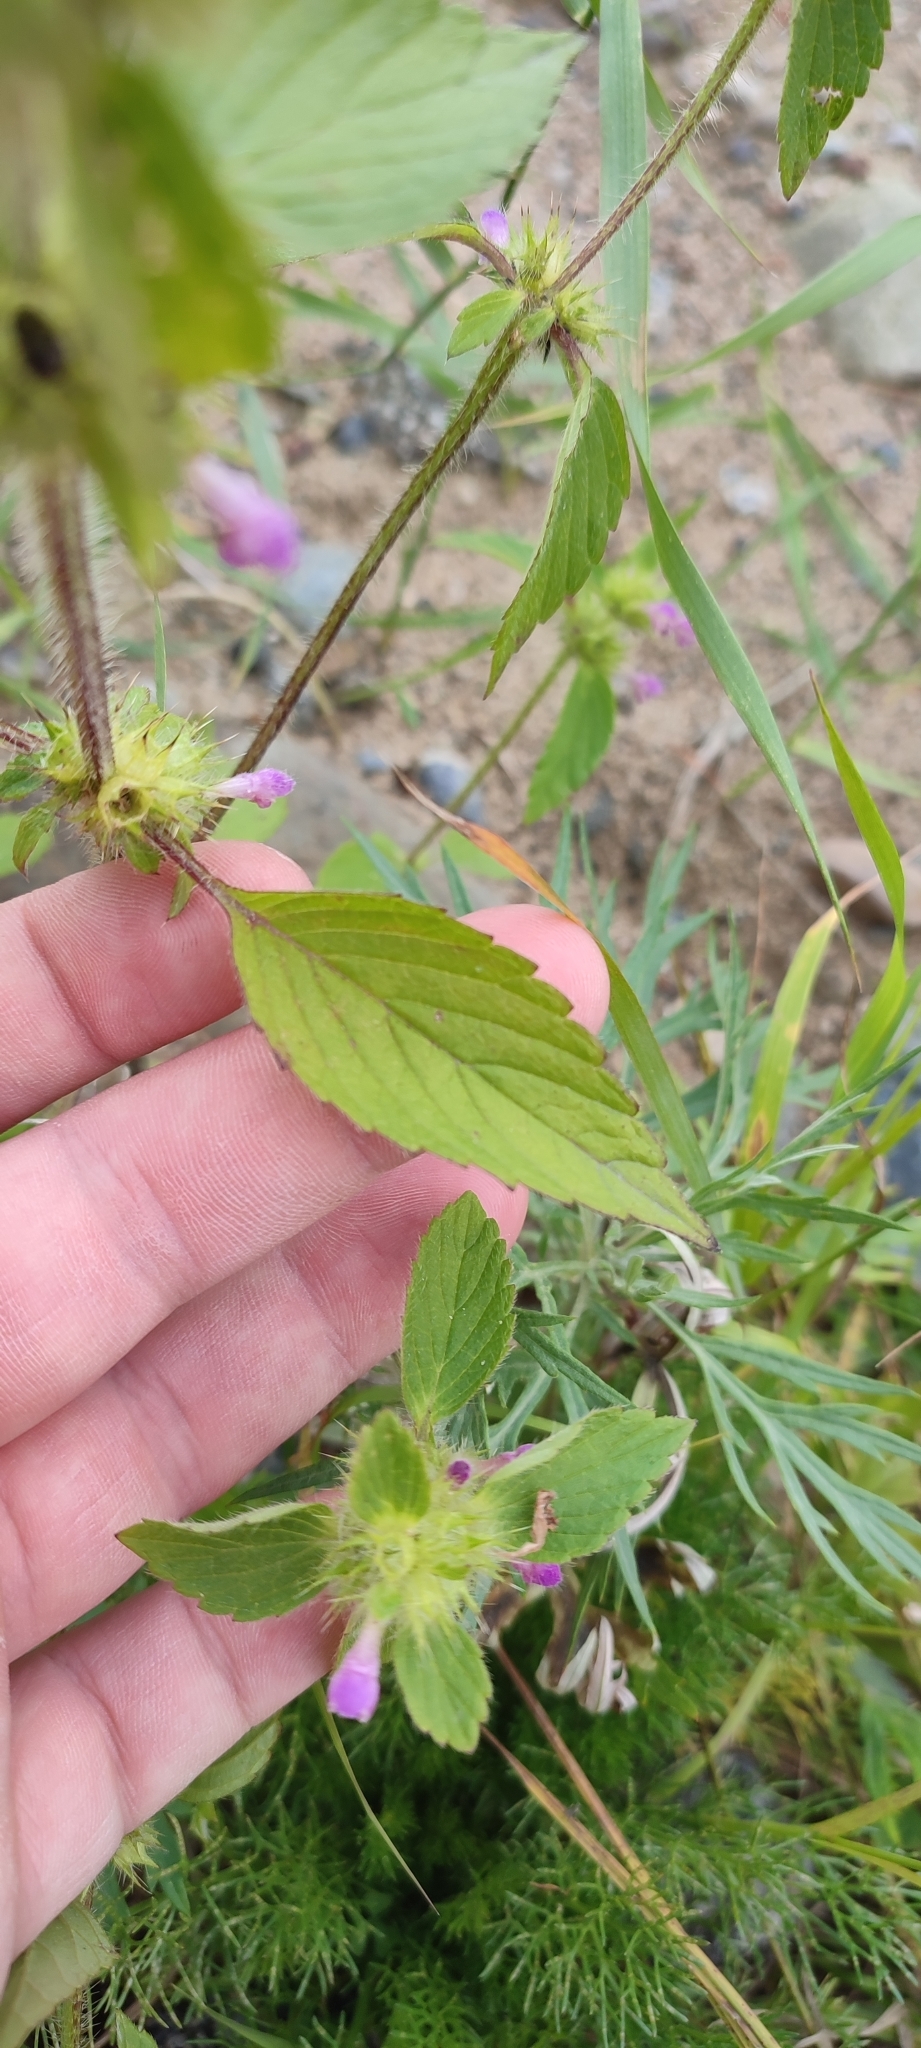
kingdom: Plantae
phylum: Tracheophyta
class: Magnoliopsida
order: Lamiales
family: Lamiaceae
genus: Galeopsis
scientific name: Galeopsis bifida
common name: Bifid hemp-nettle
